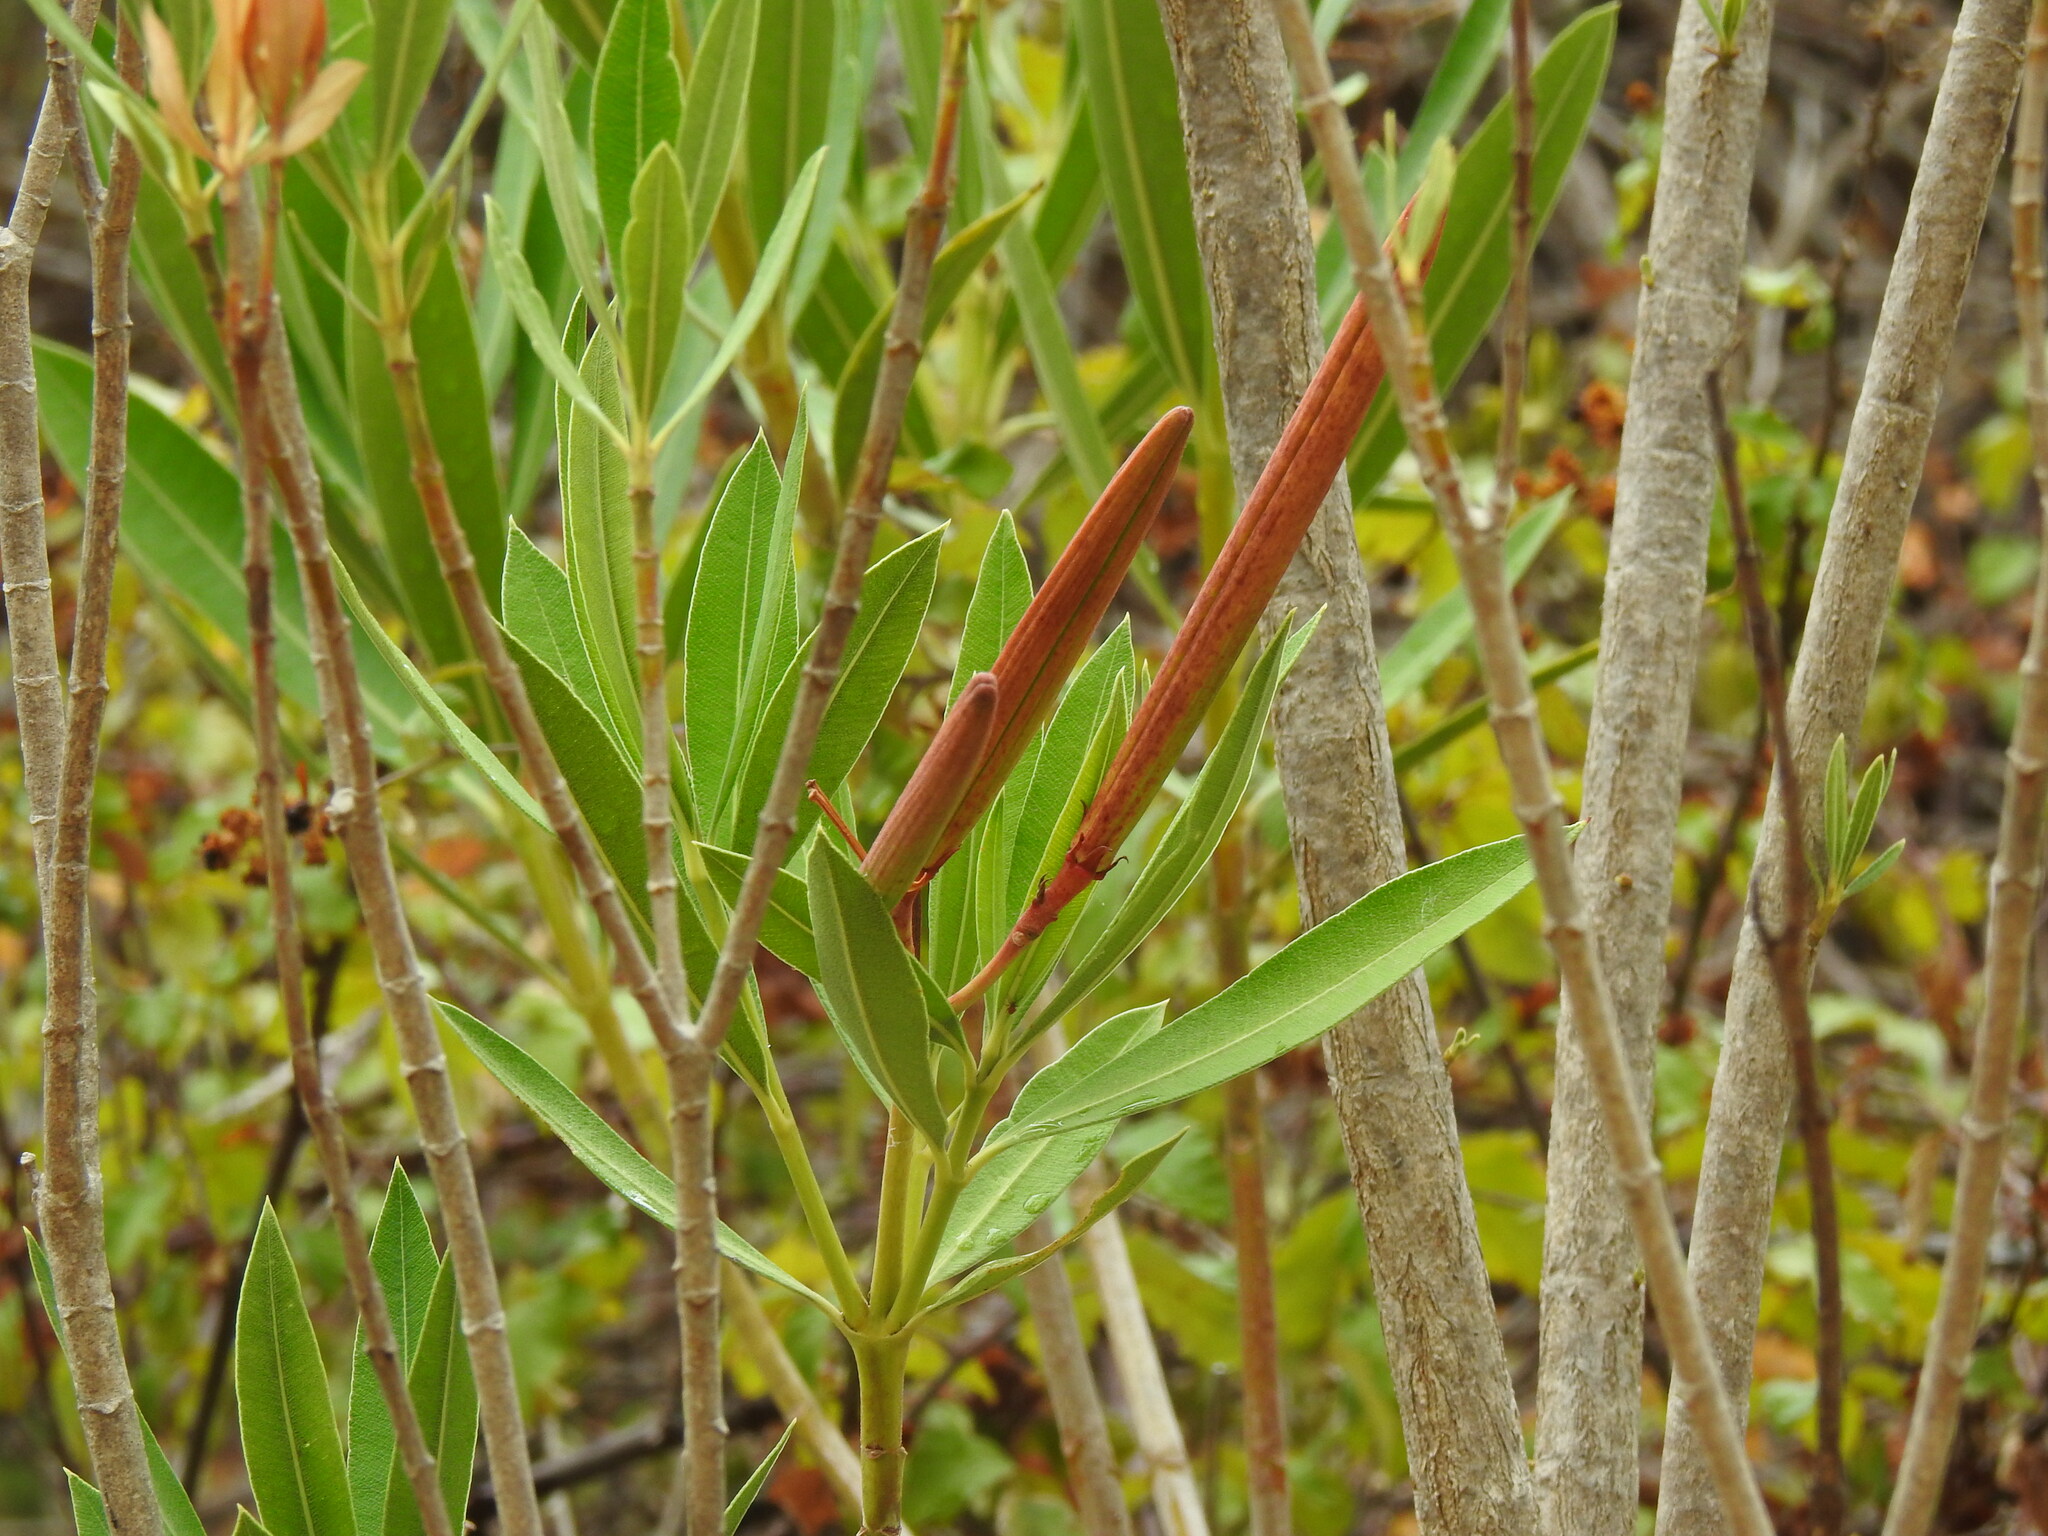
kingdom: Plantae
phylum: Tracheophyta
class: Magnoliopsida
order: Gentianales
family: Apocynaceae
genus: Nerium
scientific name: Nerium oleander
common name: Oleander
